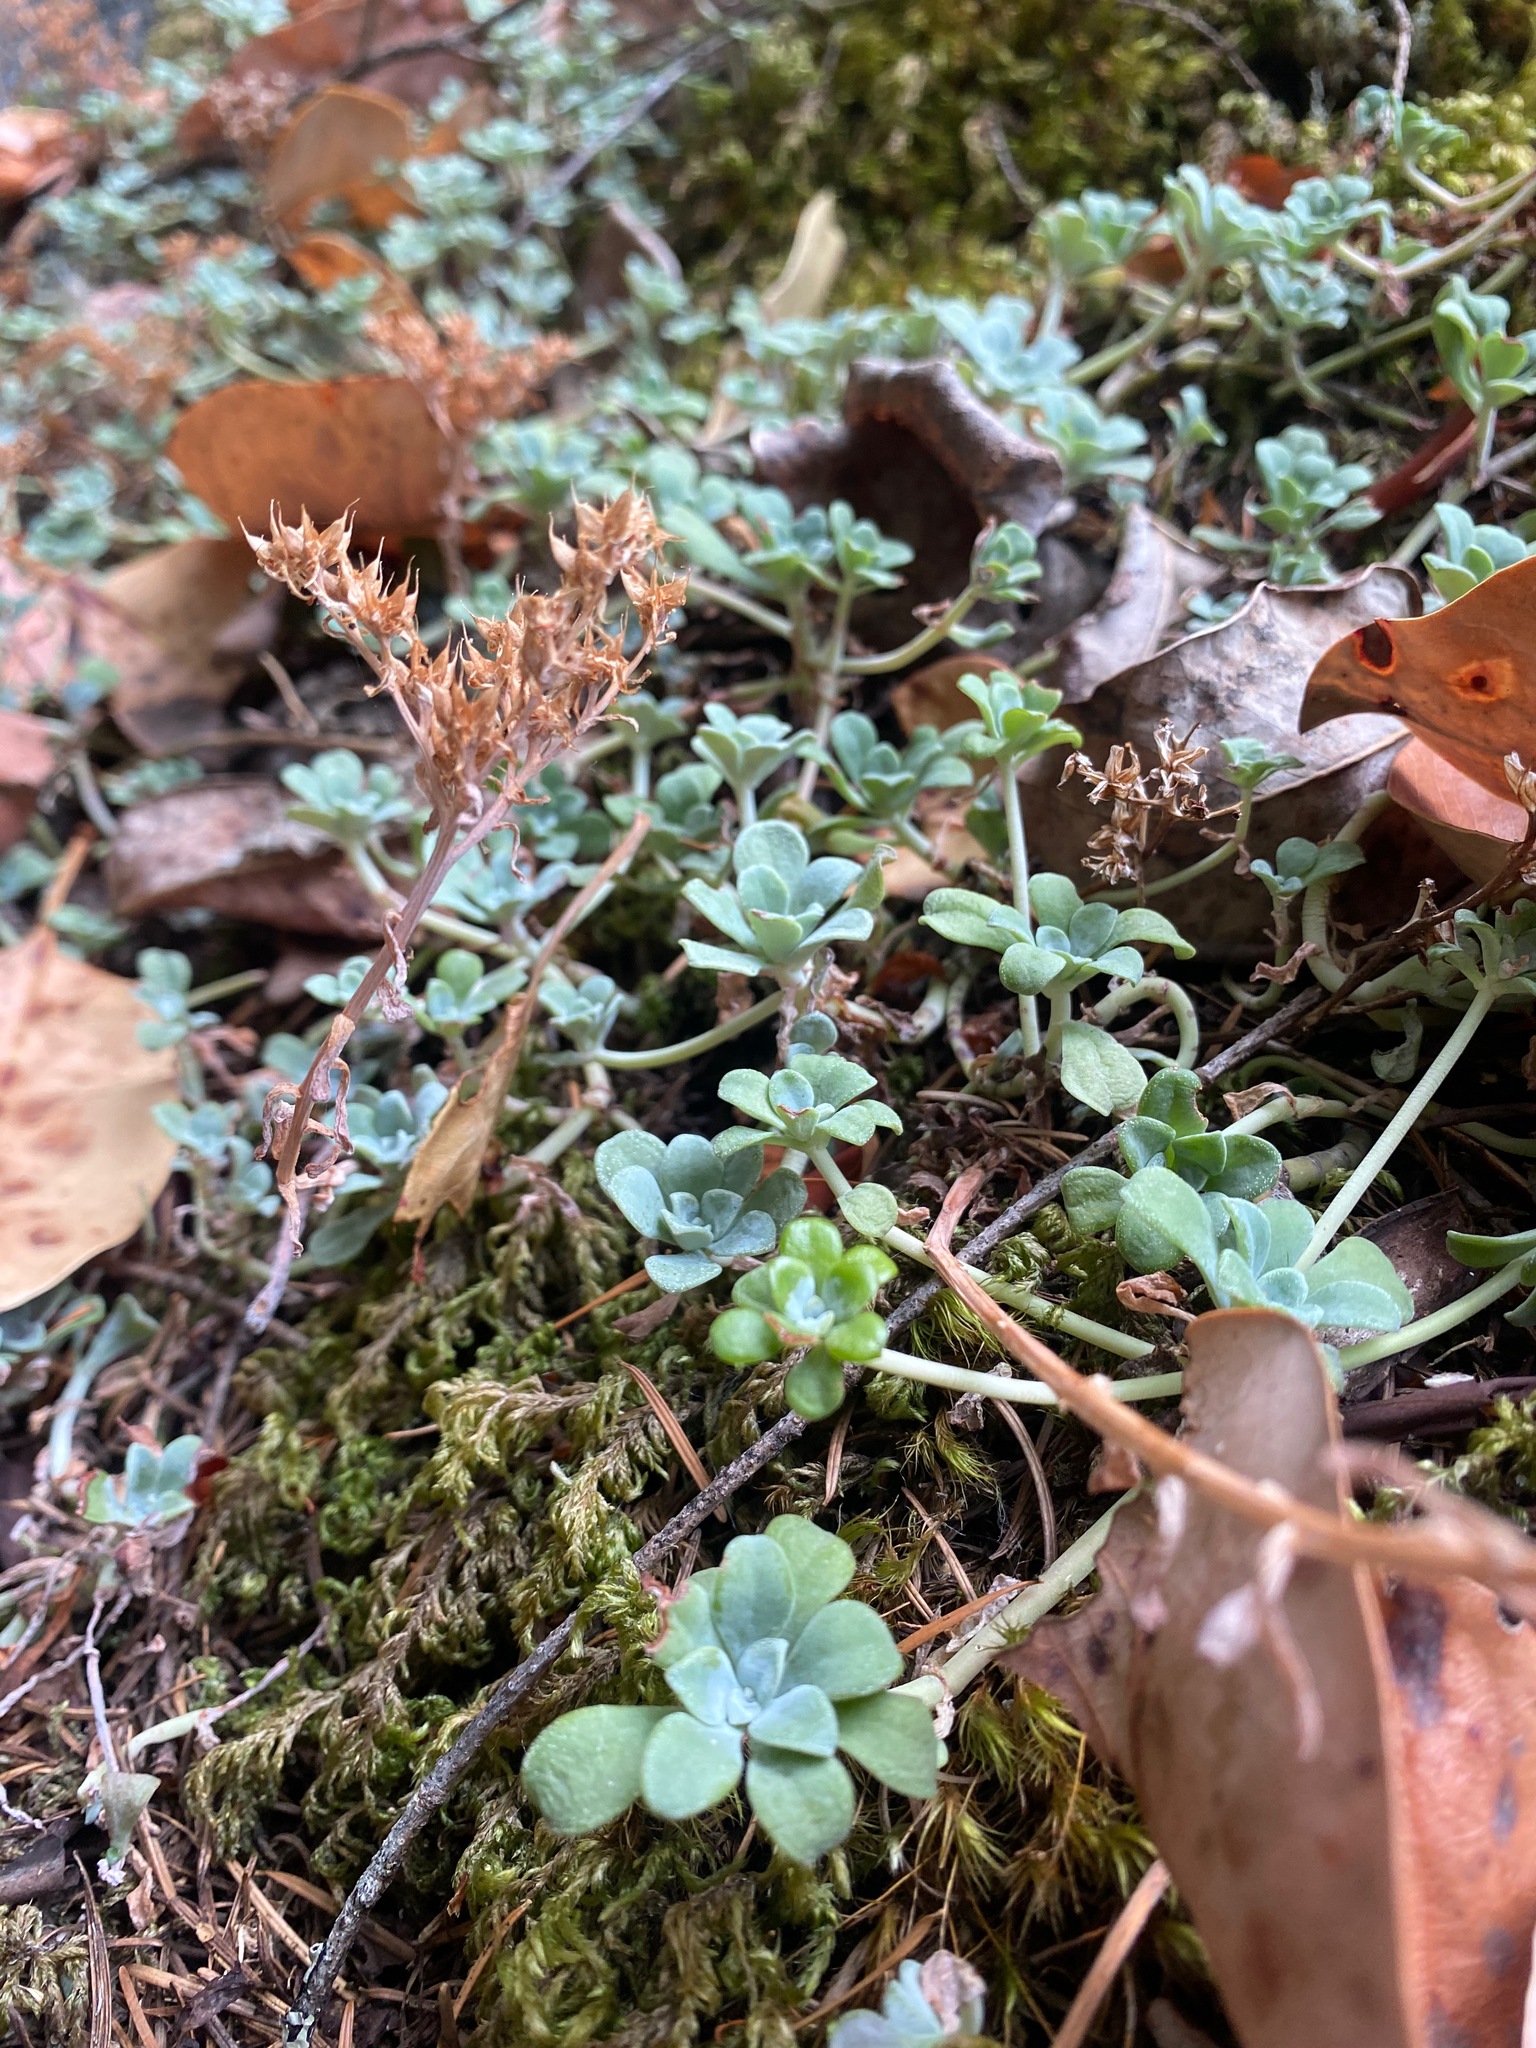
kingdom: Plantae
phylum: Tracheophyta
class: Magnoliopsida
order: Saxifragales
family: Crassulaceae
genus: Sedum
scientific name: Sedum spathulifolium
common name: Colorado stonecrop
